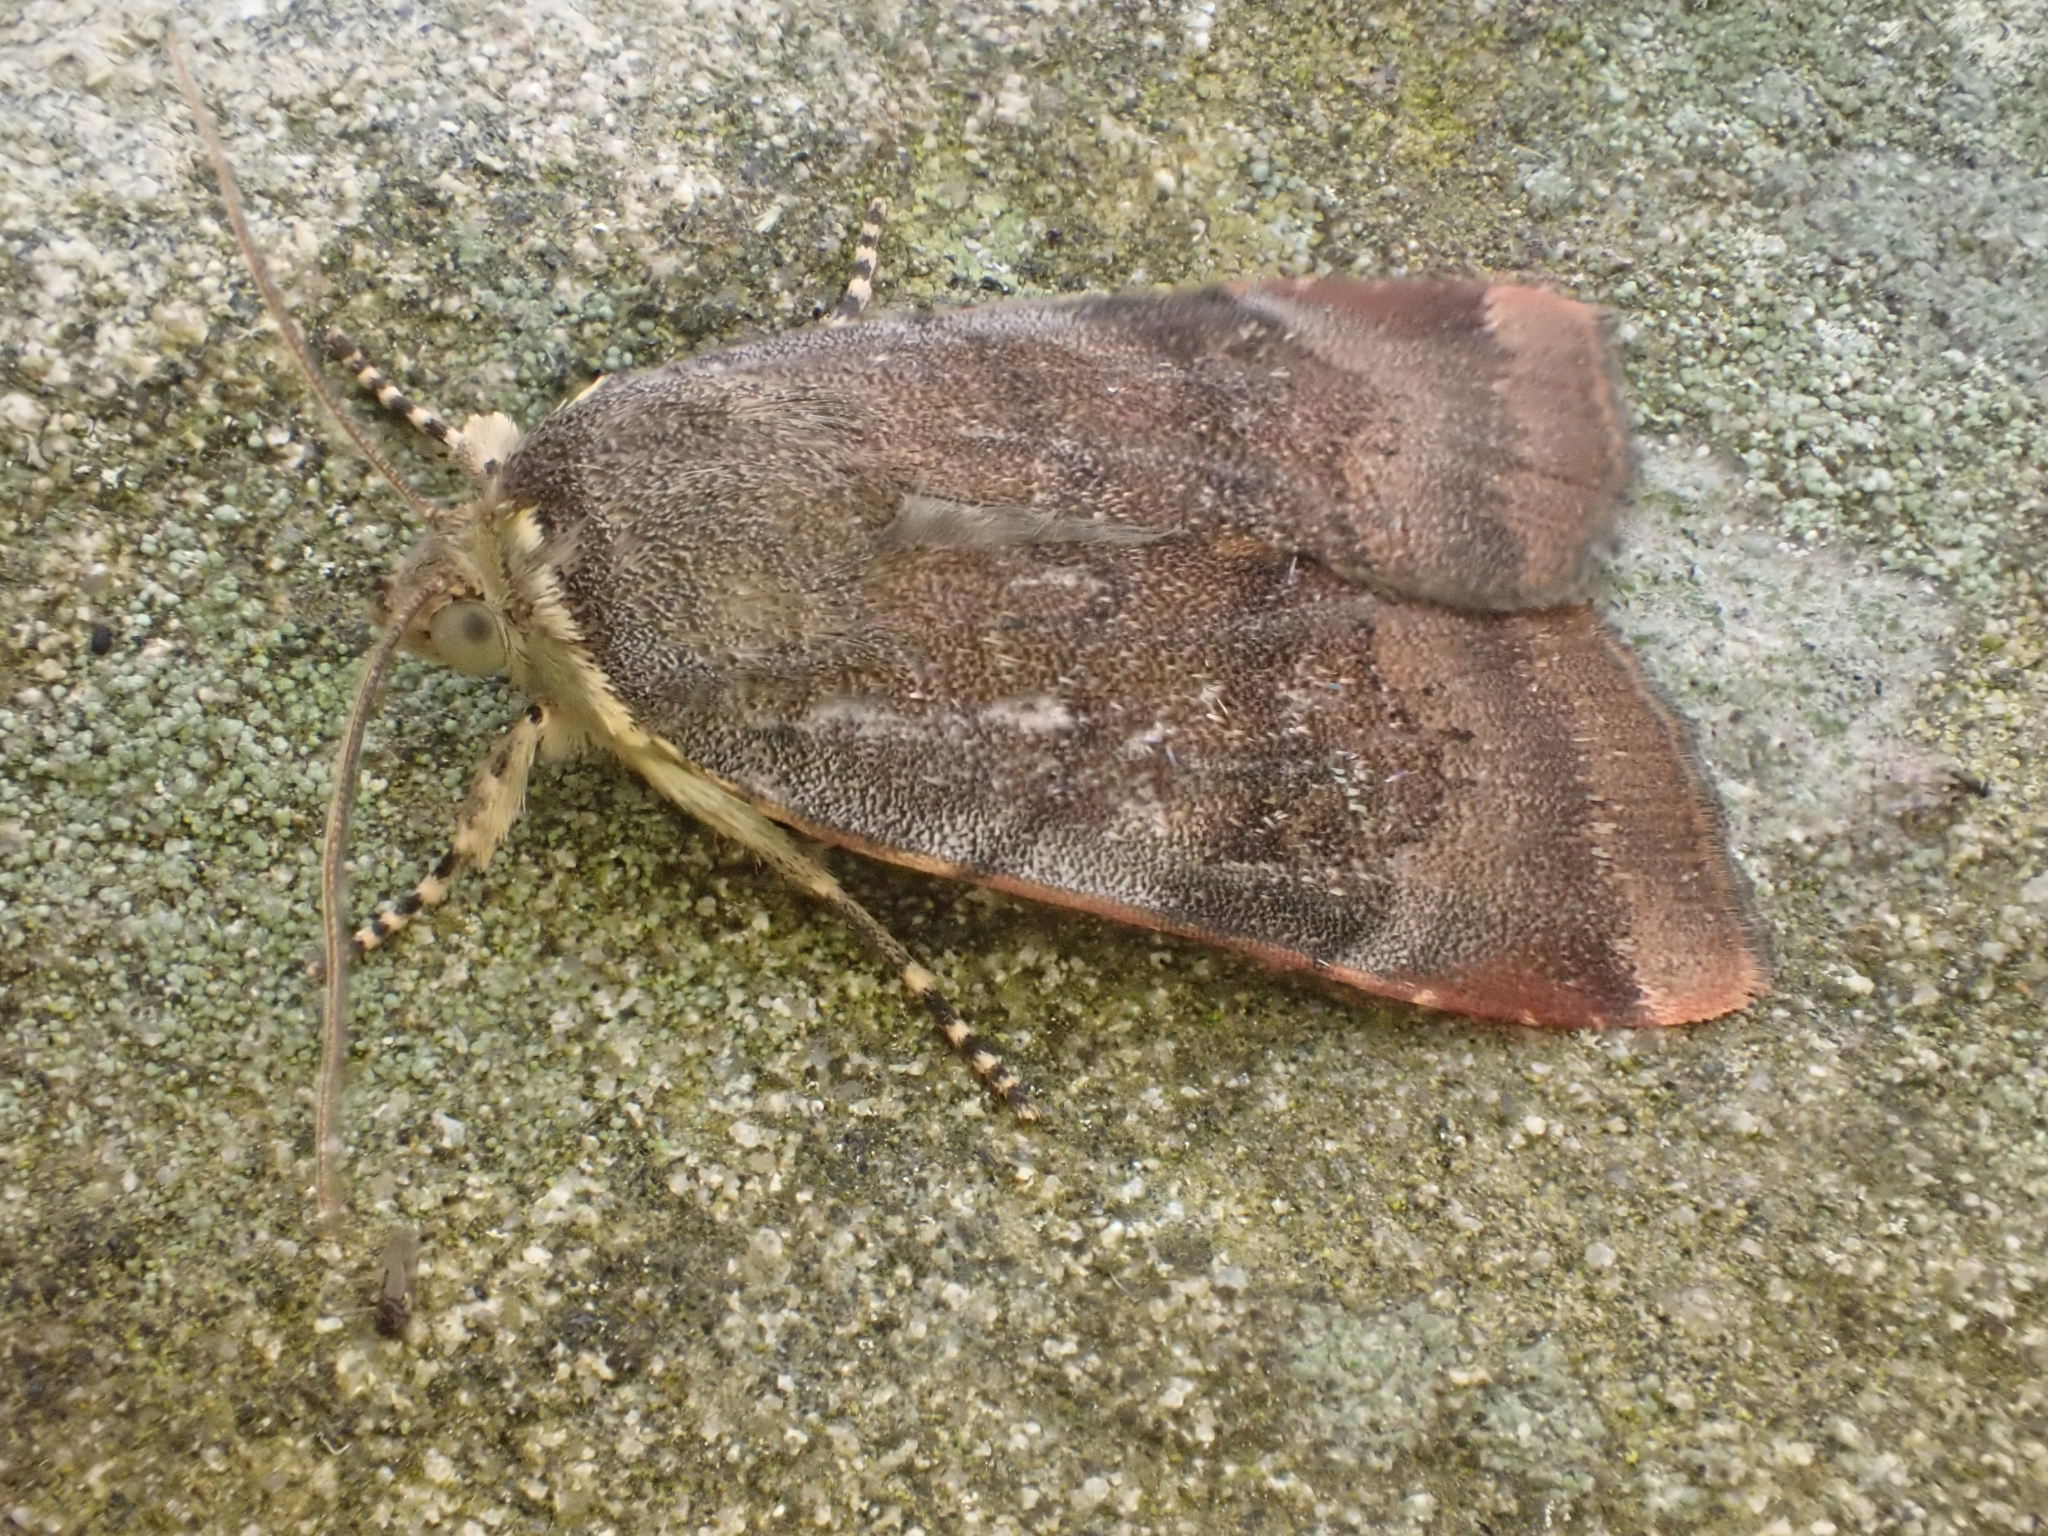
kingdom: Animalia
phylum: Arthropoda
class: Insecta
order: Lepidoptera
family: Noctuidae
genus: Noctua
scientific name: Noctua janthe
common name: Lesser broad-bordered yellow underwing
